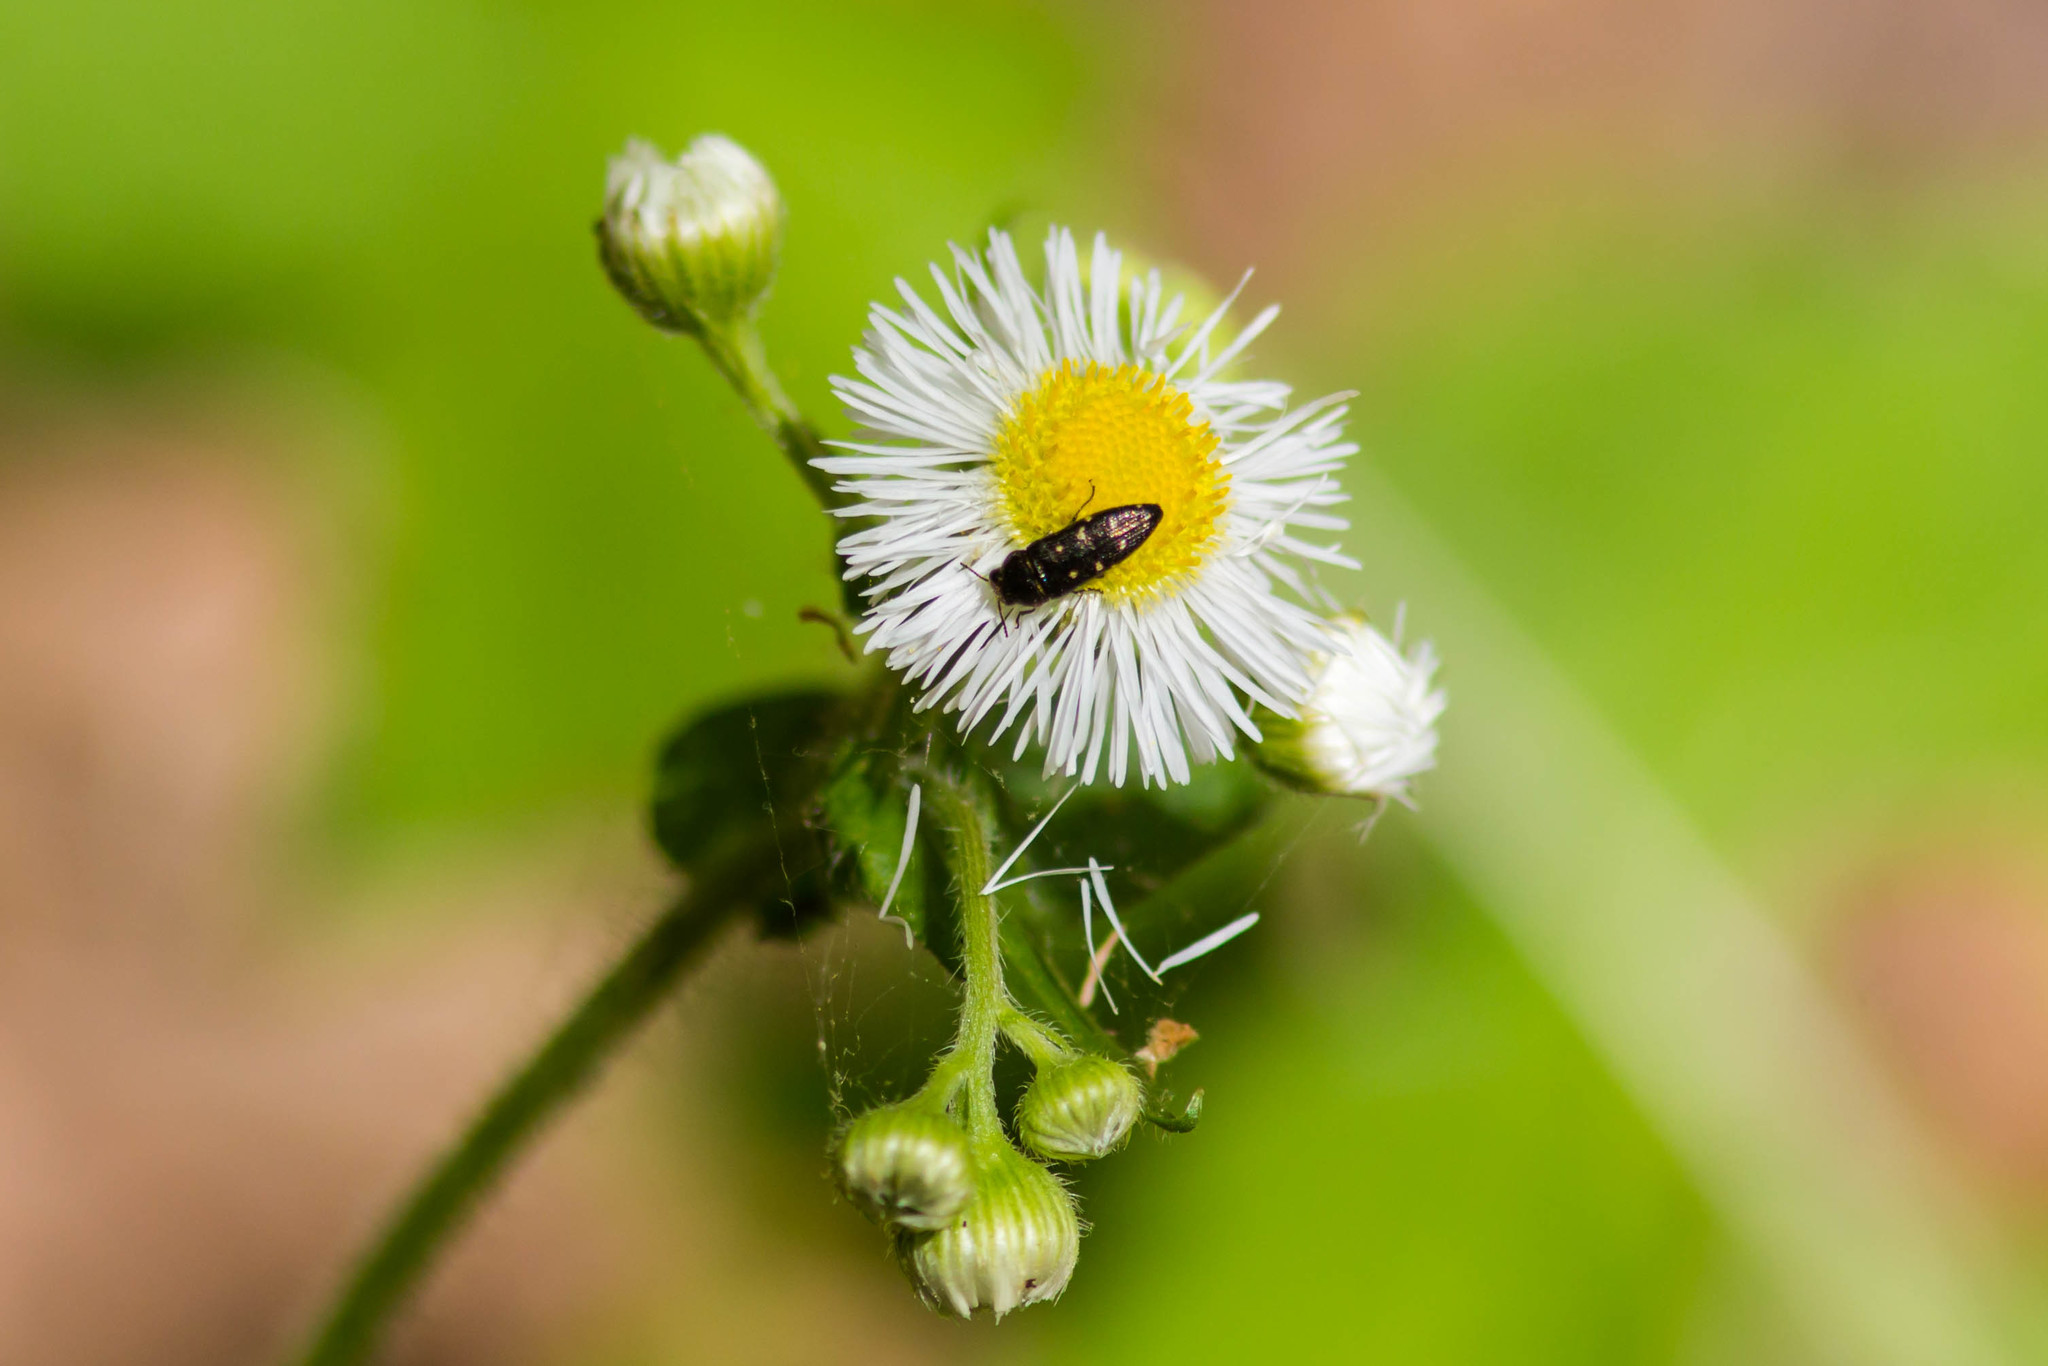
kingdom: Animalia
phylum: Arthropoda
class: Insecta
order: Coleoptera
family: Buprestidae
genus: Acmaeodera
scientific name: Acmaeodera tubulus
